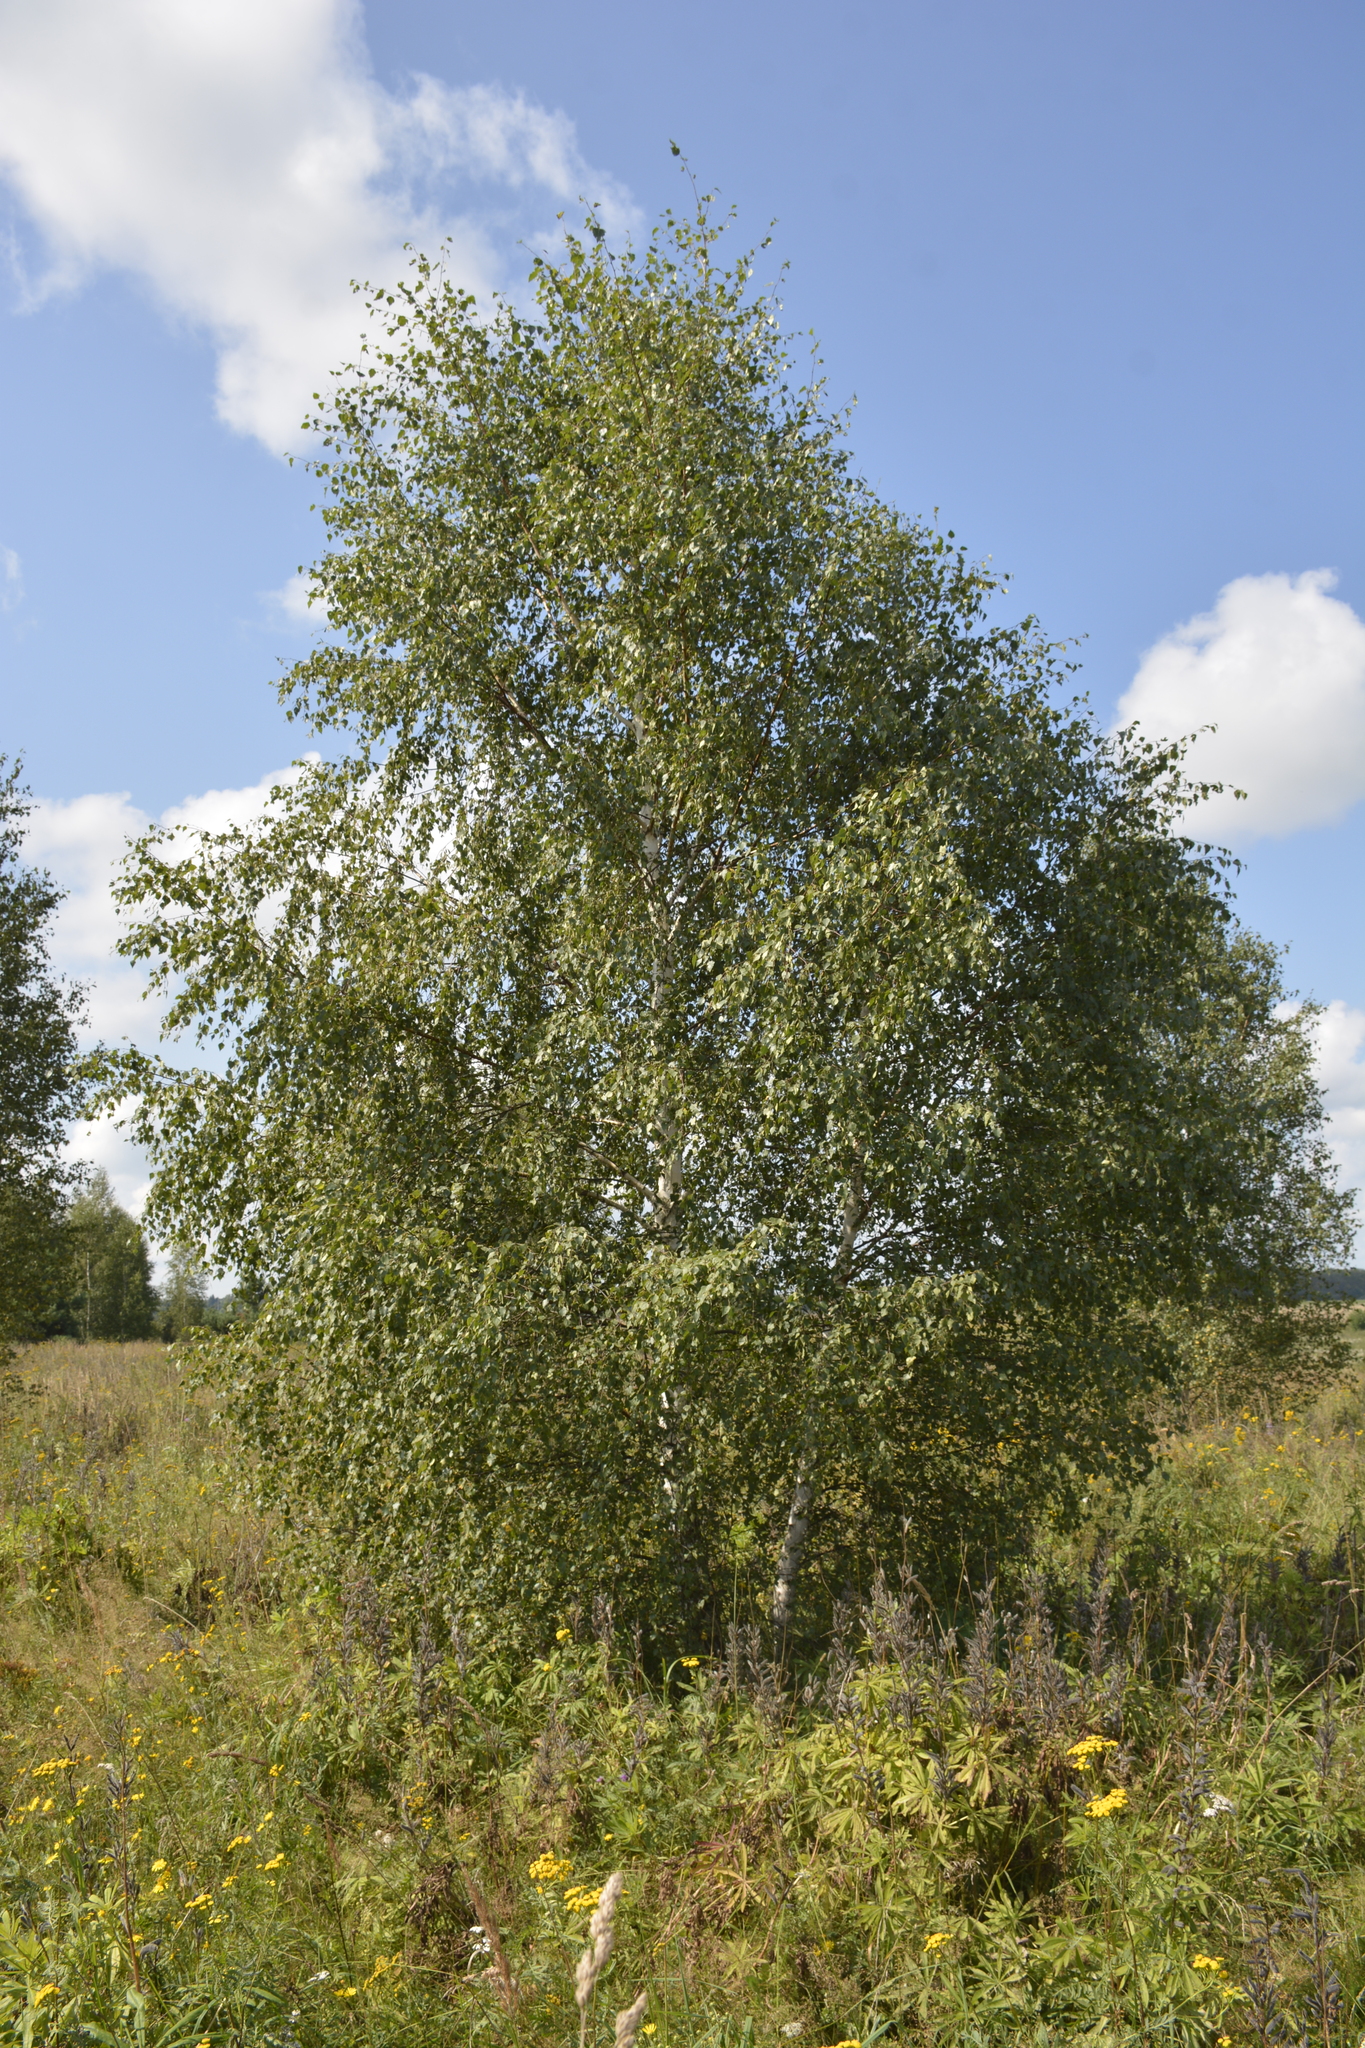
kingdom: Plantae
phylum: Tracheophyta
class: Magnoliopsida
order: Fagales
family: Betulaceae
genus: Betula
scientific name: Betula pendula
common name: Silver birch
